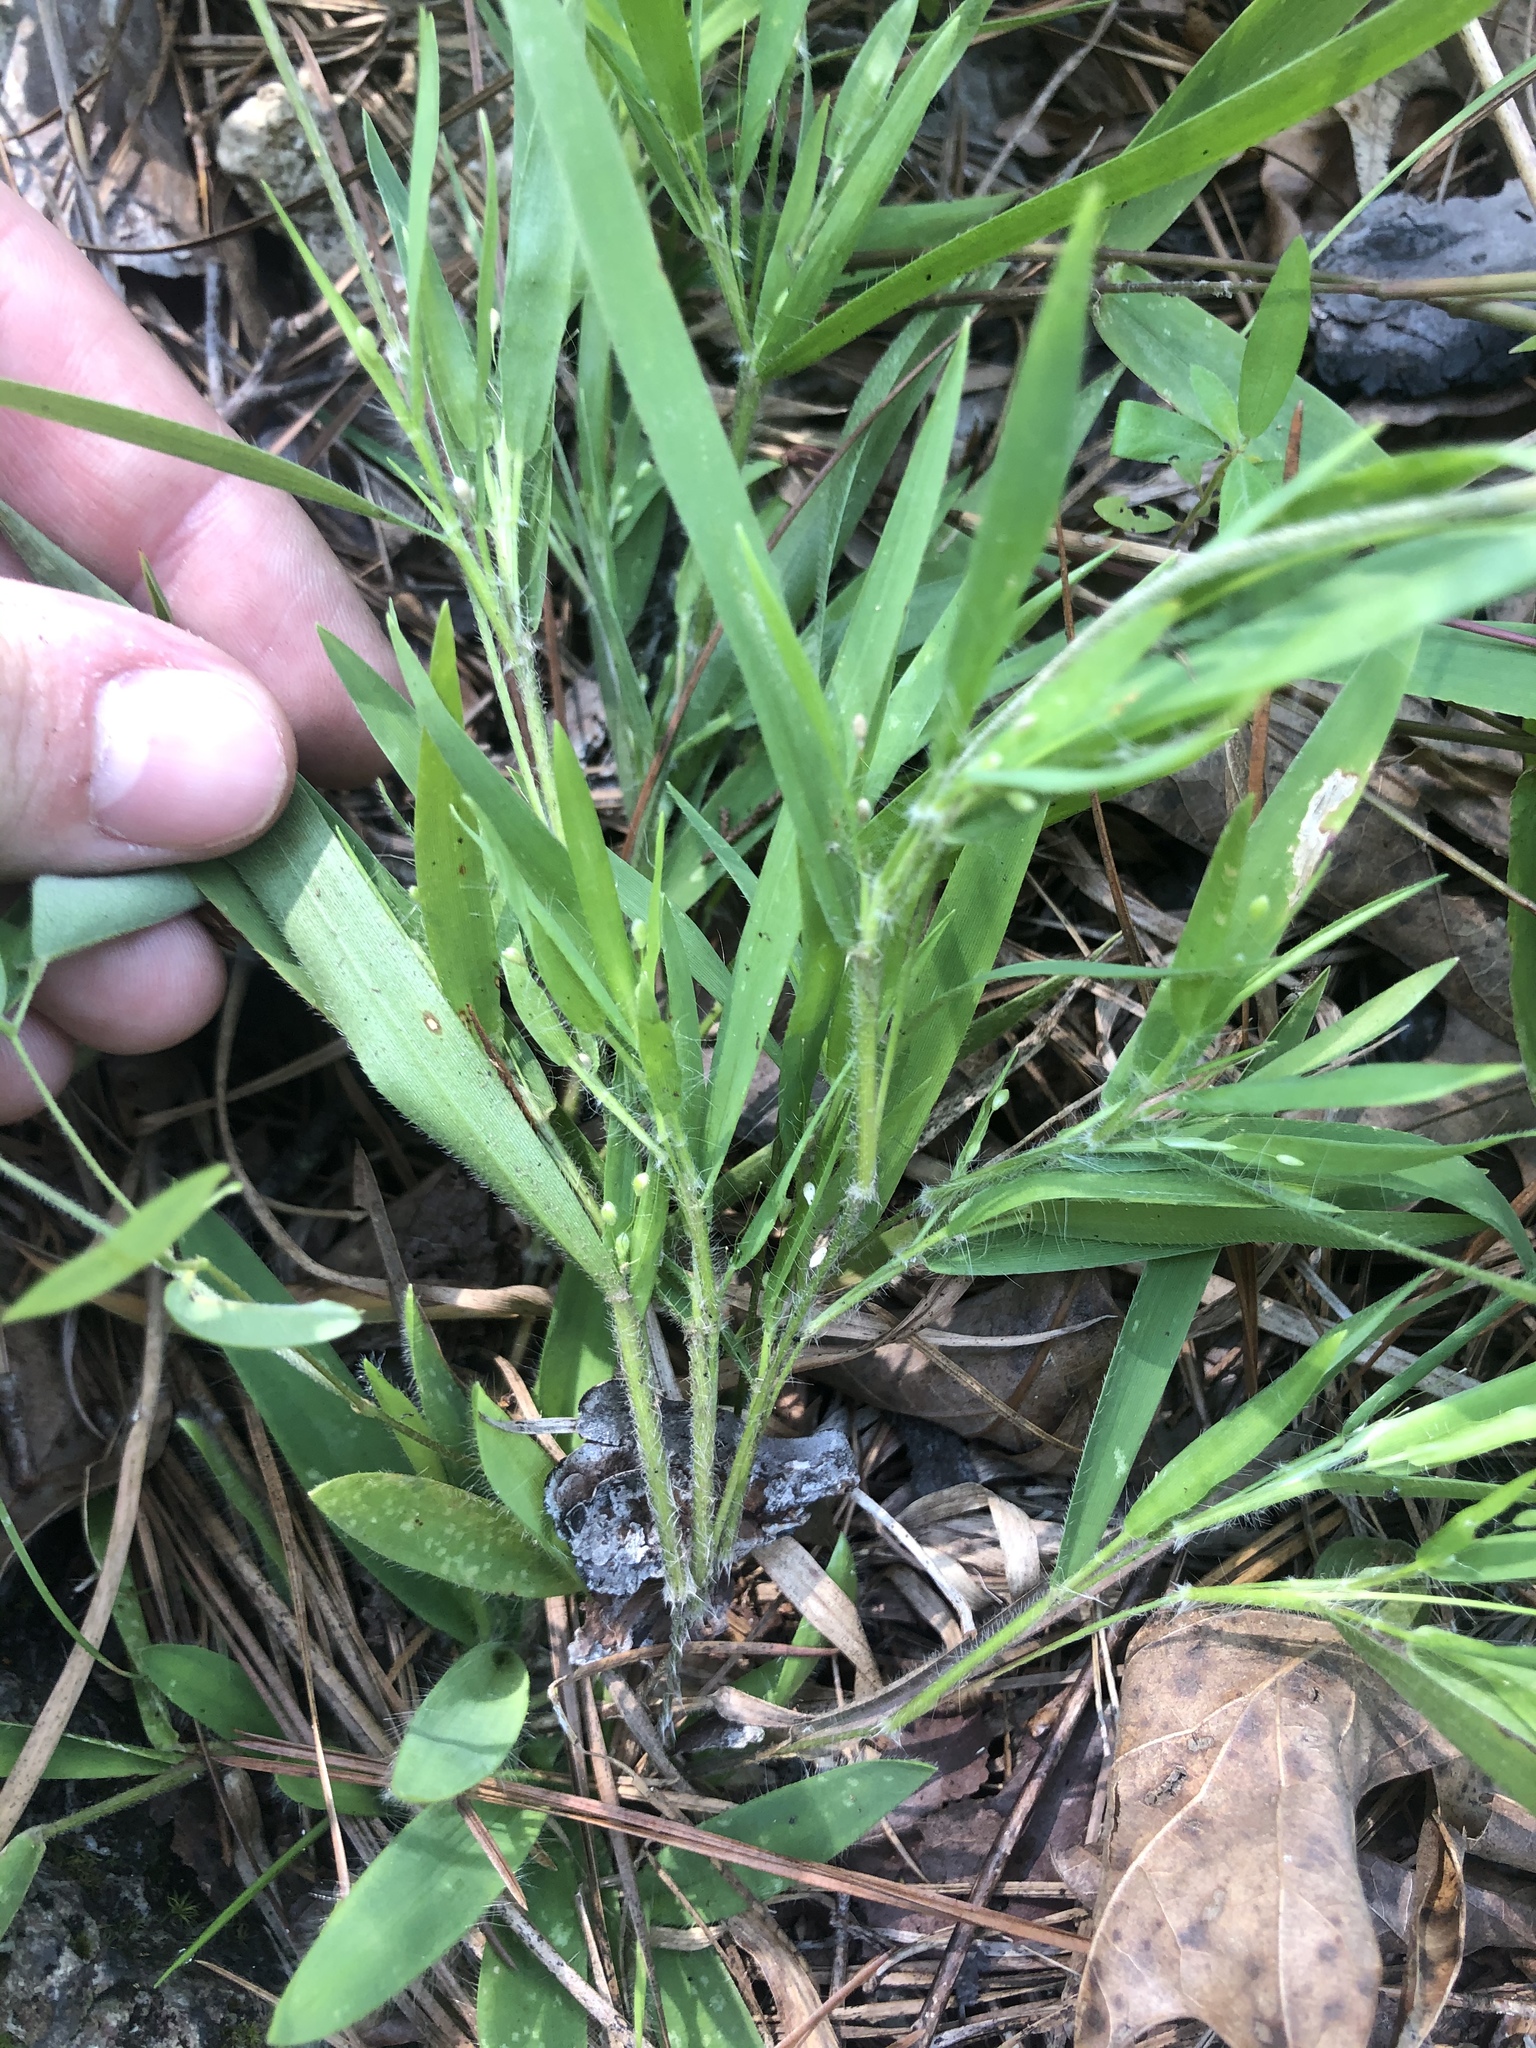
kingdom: Plantae
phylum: Tracheophyta
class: Liliopsida
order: Poales
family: Poaceae
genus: Dichanthelium
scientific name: Dichanthelium acuminatum
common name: Hairy panic grass
